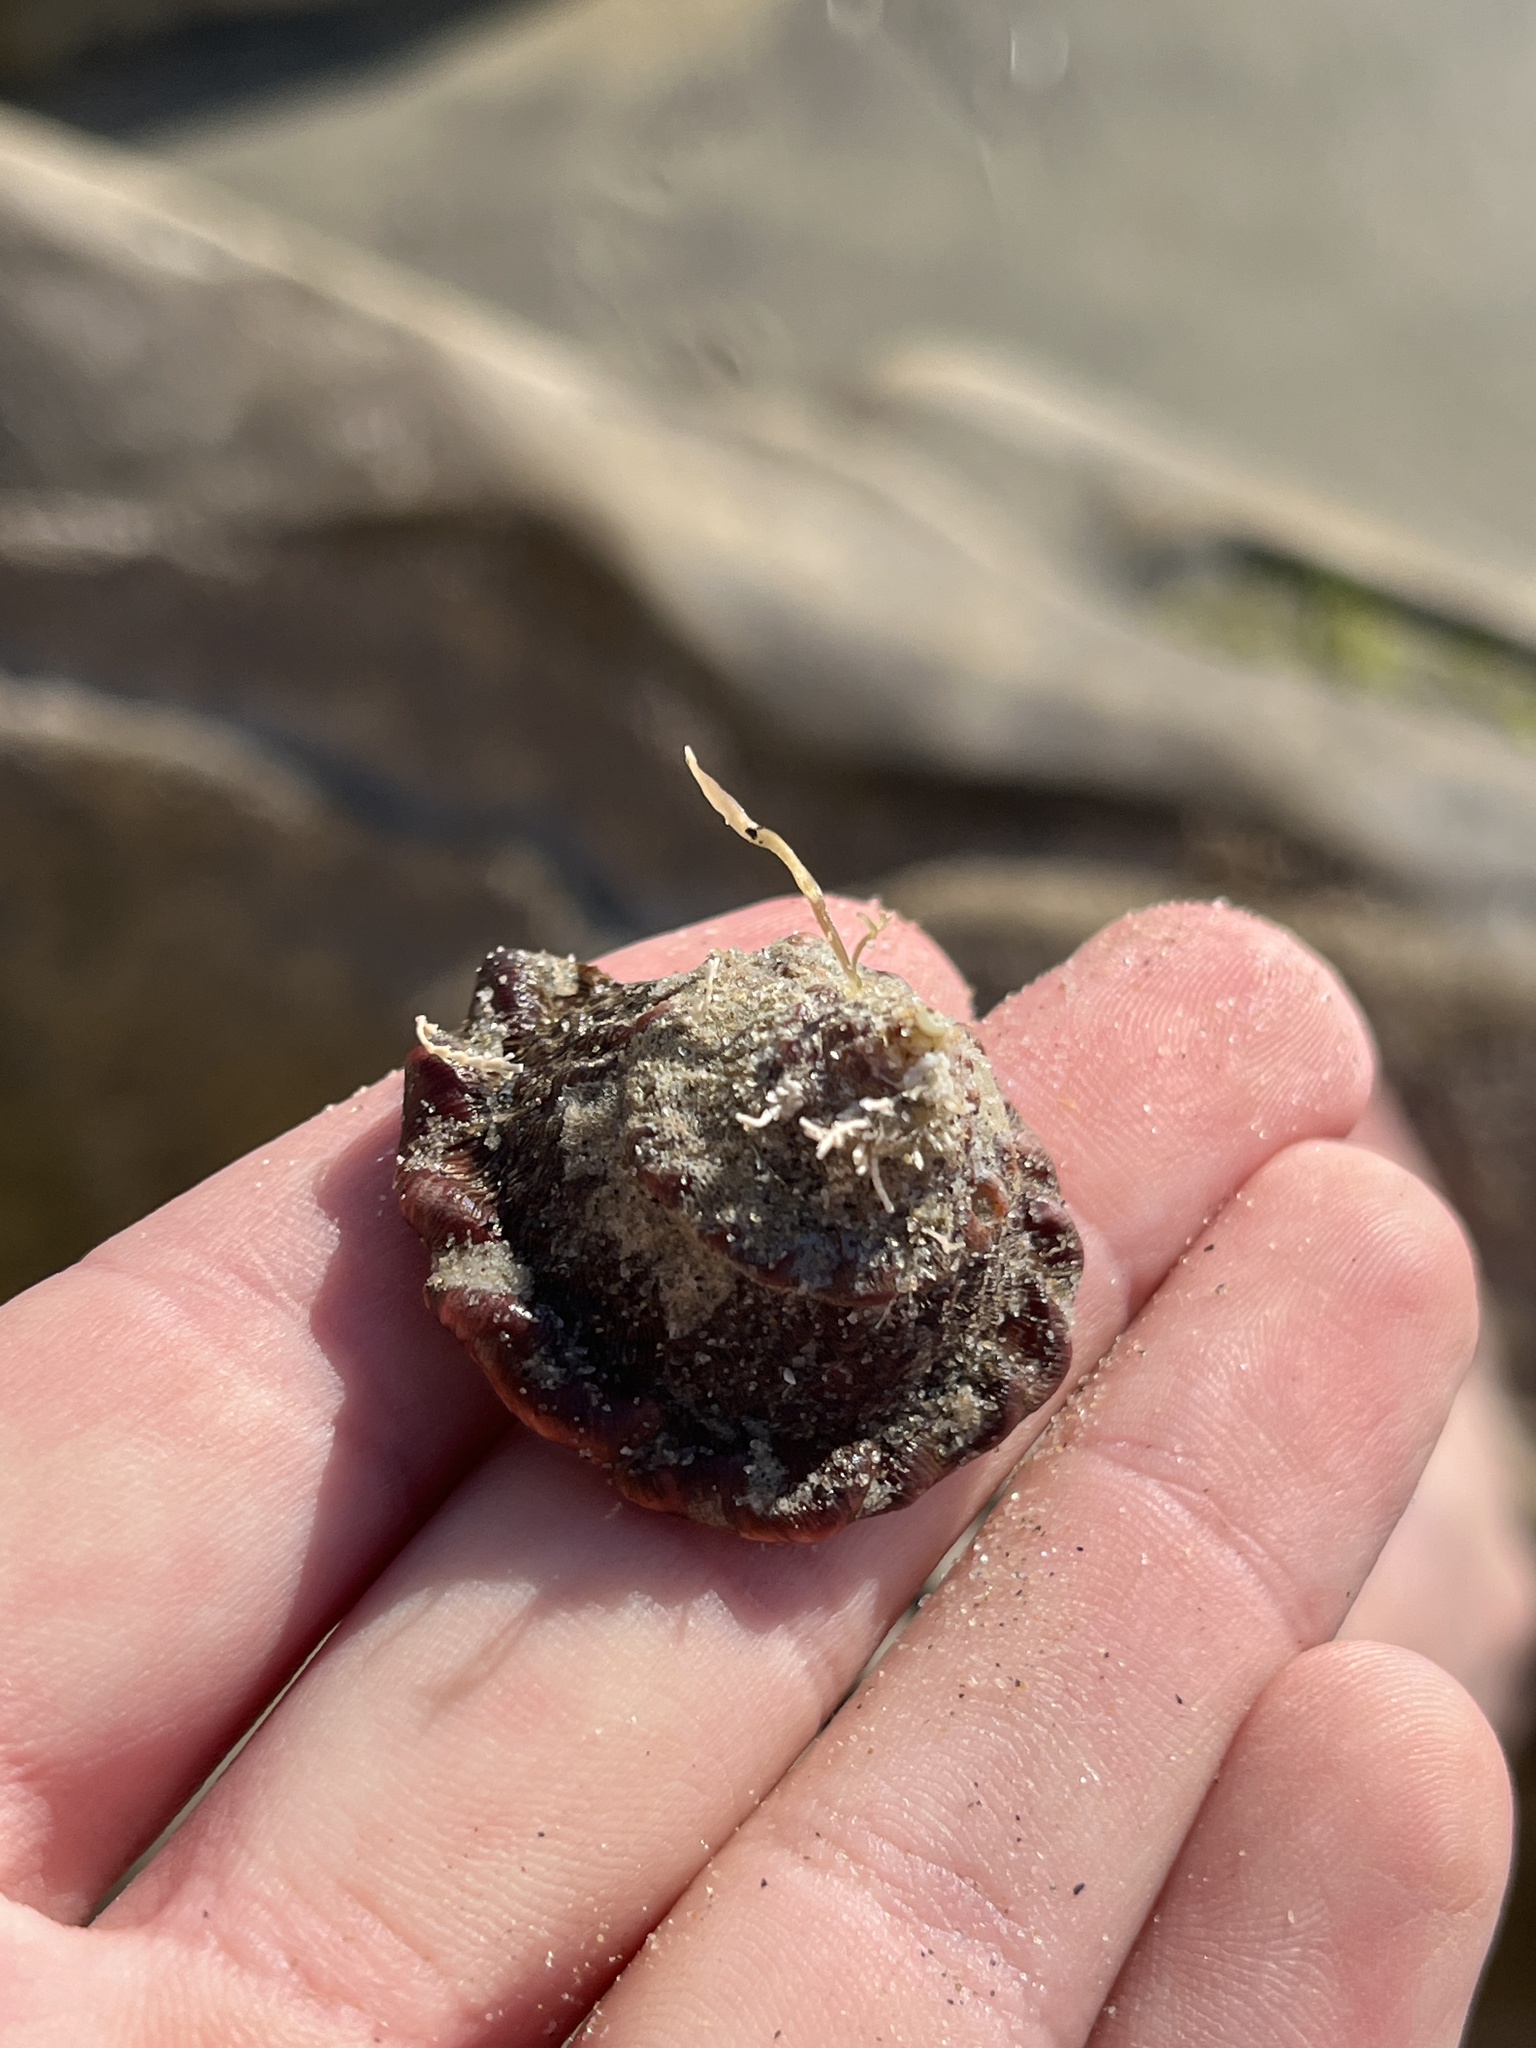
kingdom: Animalia
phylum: Mollusca
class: Gastropoda
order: Trochida
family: Turbinidae
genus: Megastraea
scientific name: Megastraea undosa
